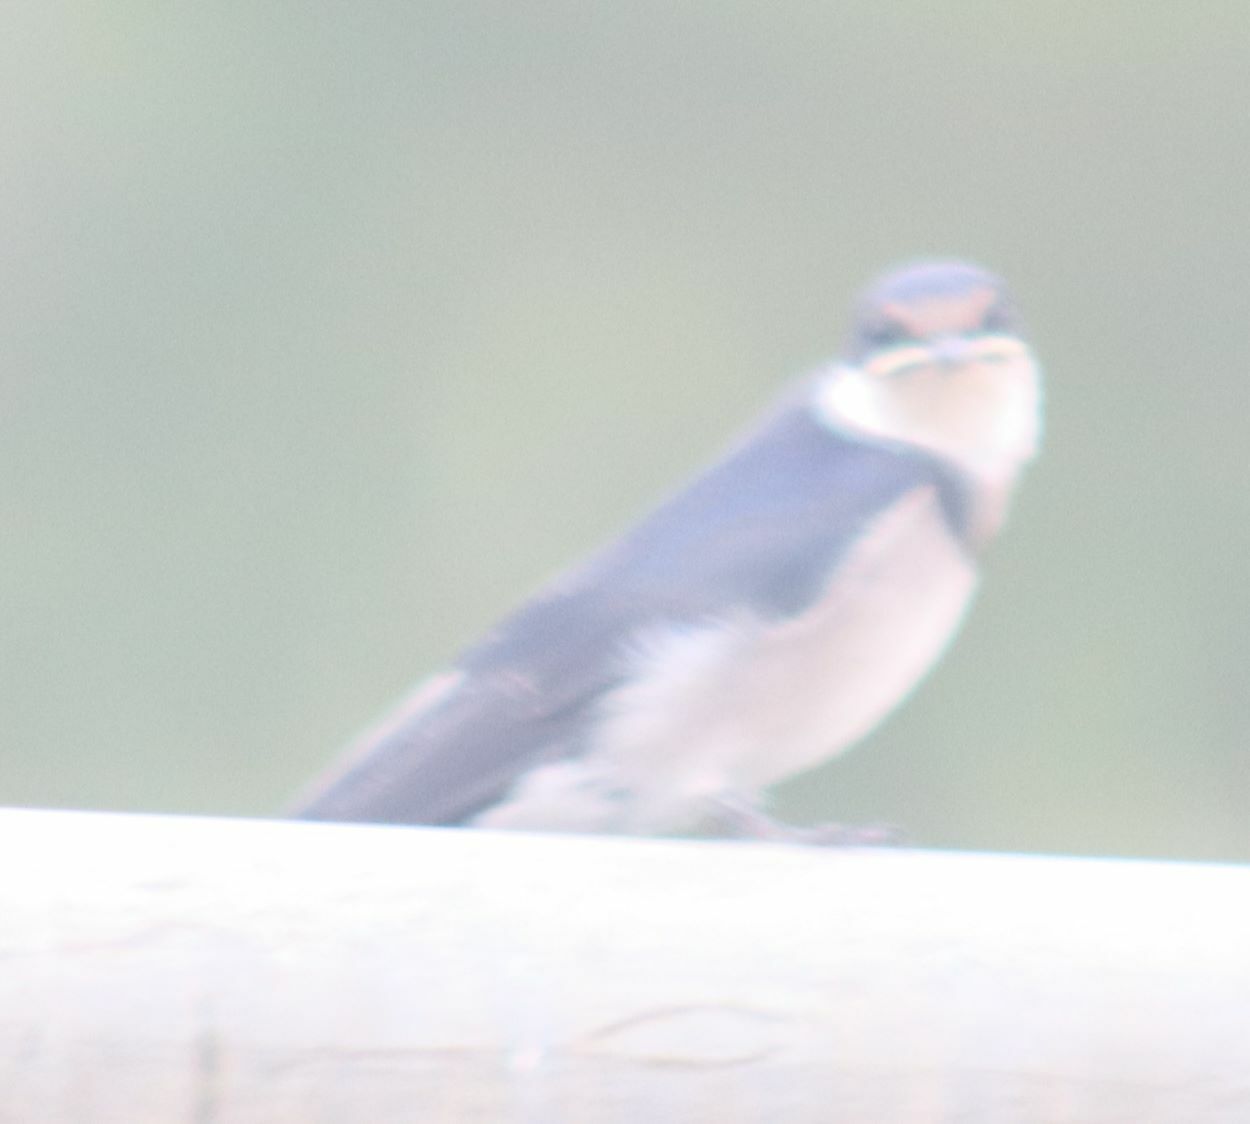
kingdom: Animalia
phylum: Chordata
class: Aves
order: Passeriformes
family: Hirundinidae
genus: Hirundo
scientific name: Hirundo albigularis
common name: White-throated swallow
